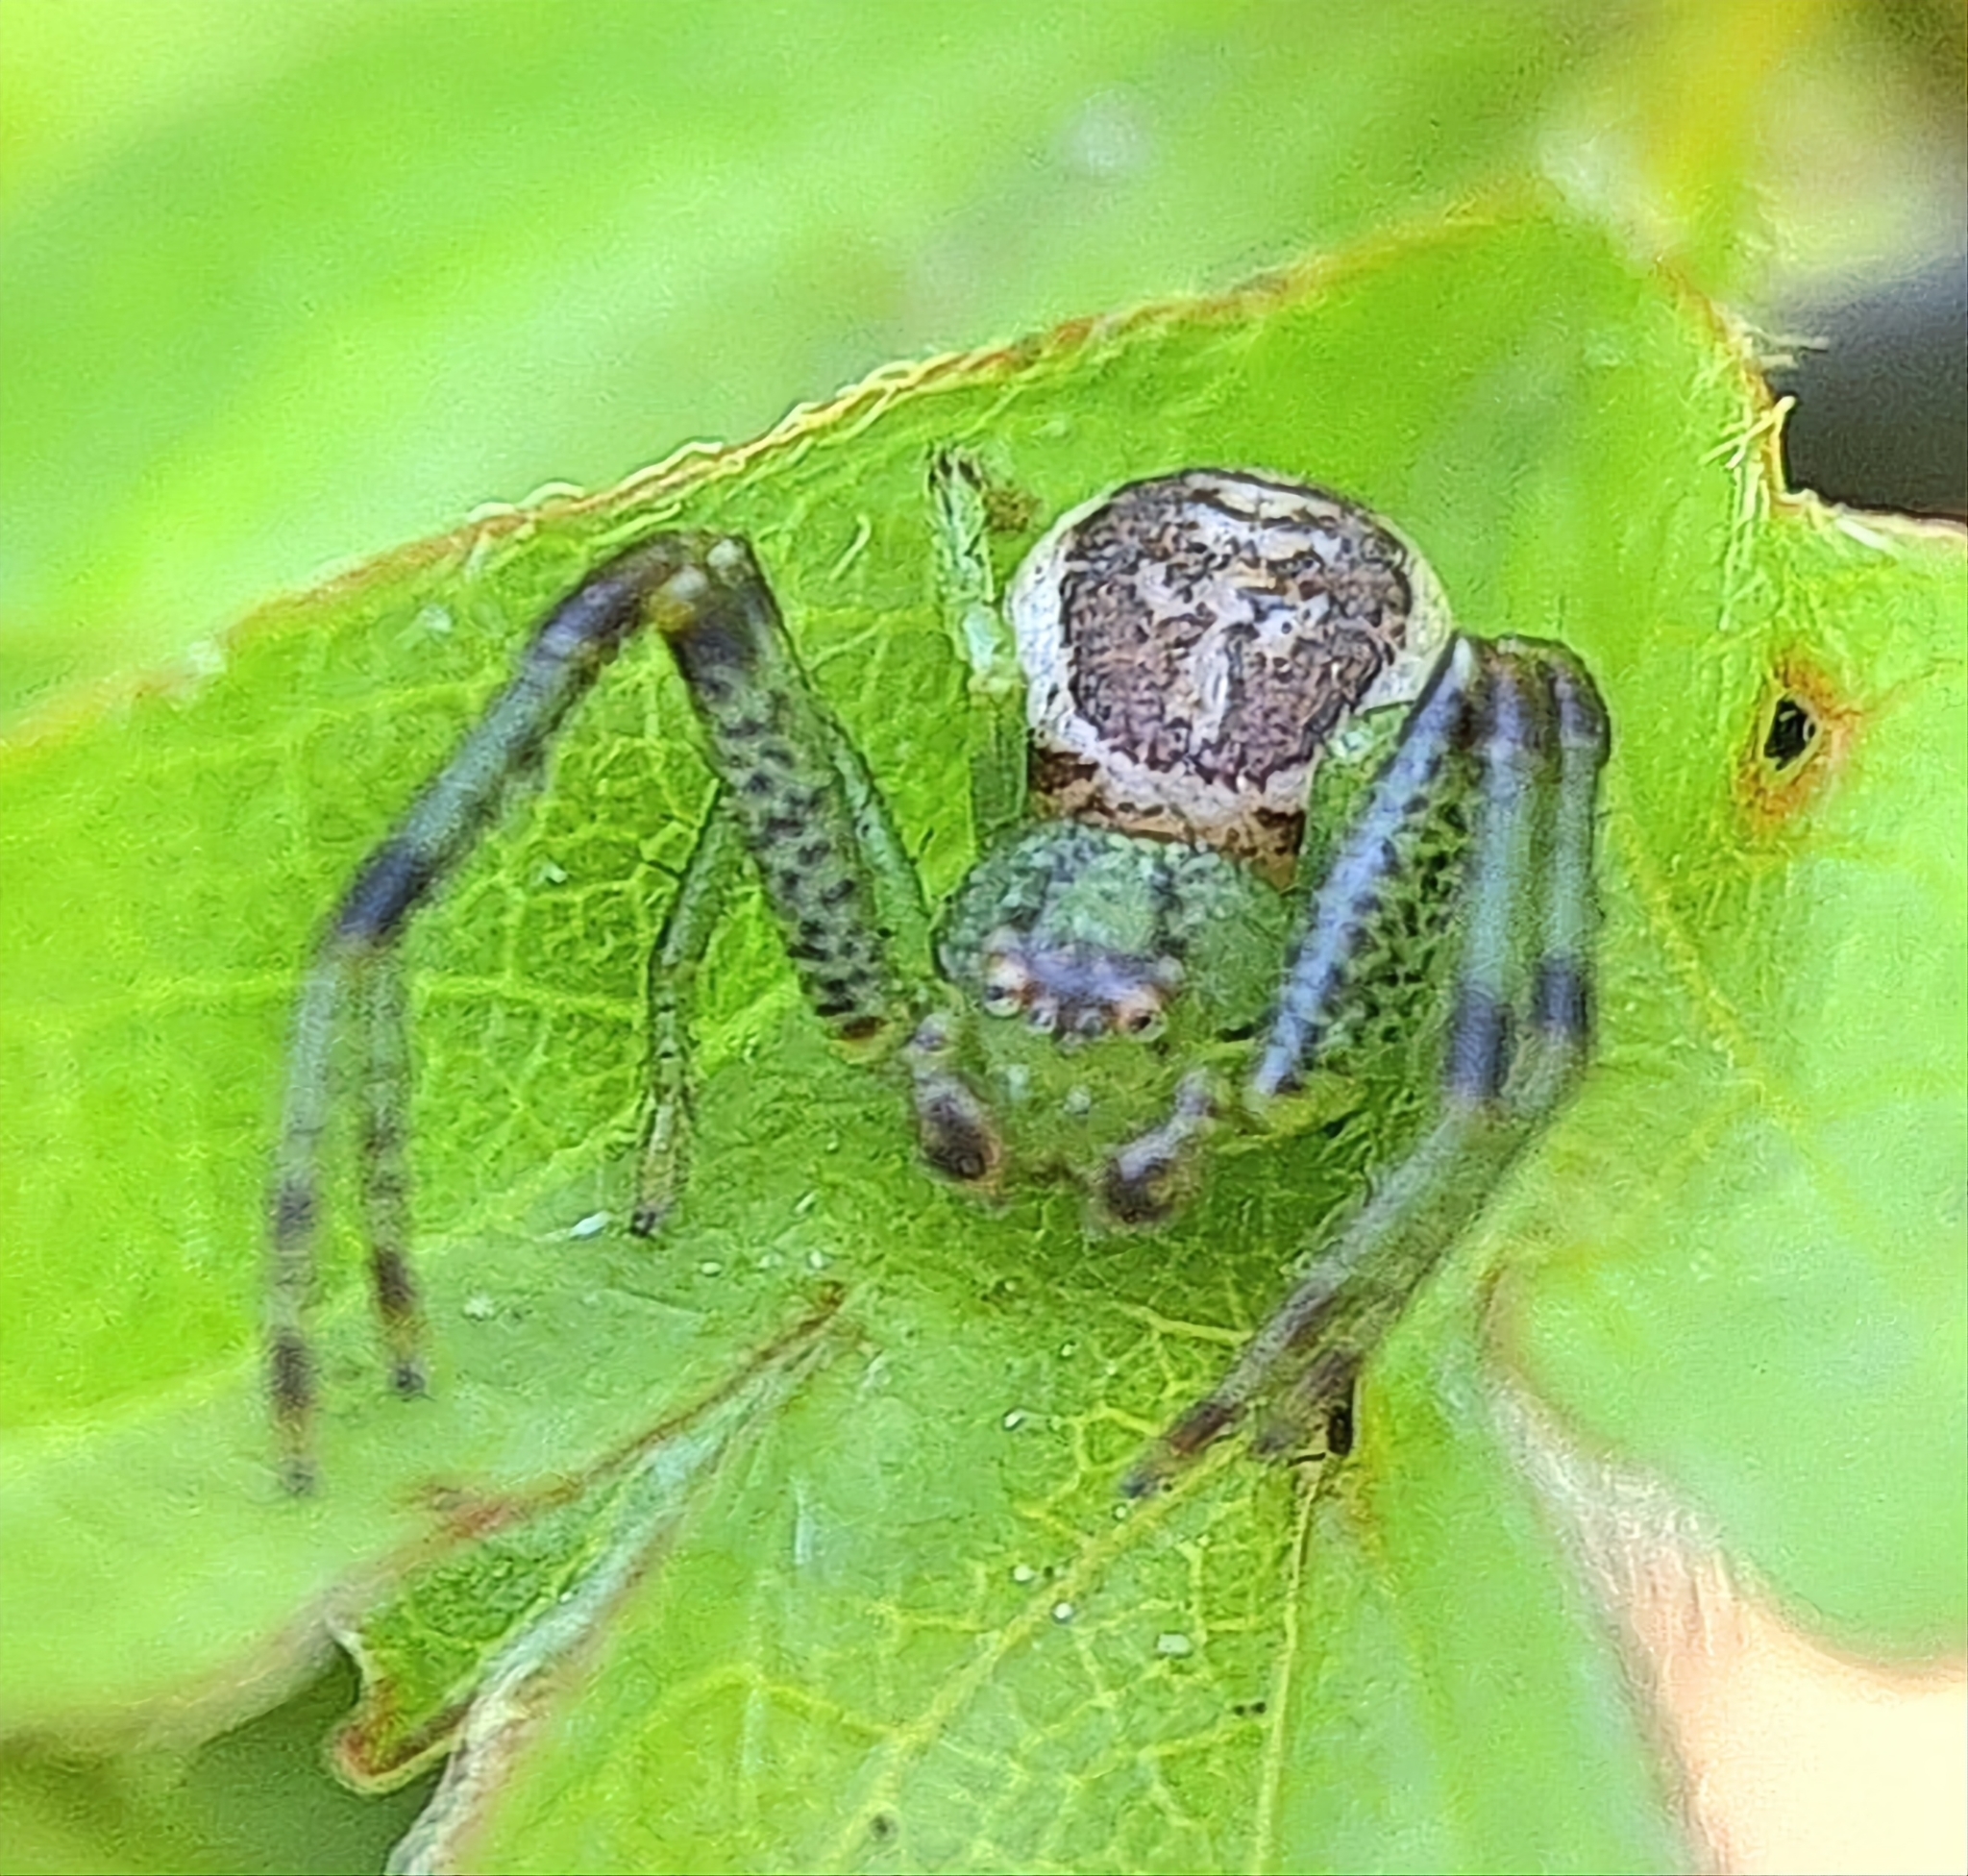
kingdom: Animalia
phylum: Arthropoda
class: Arachnida
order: Araneae
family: Thomisidae
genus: Diaea
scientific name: Diaea dorsata
